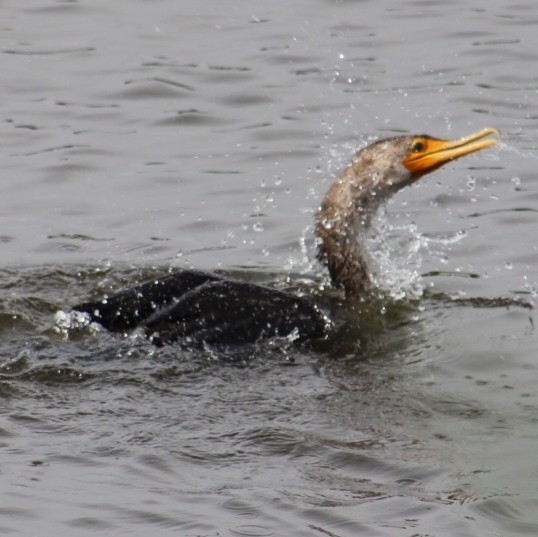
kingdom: Animalia
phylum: Chordata
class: Aves
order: Suliformes
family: Phalacrocoracidae
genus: Phalacrocorax
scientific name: Phalacrocorax auritus
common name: Double-crested cormorant
